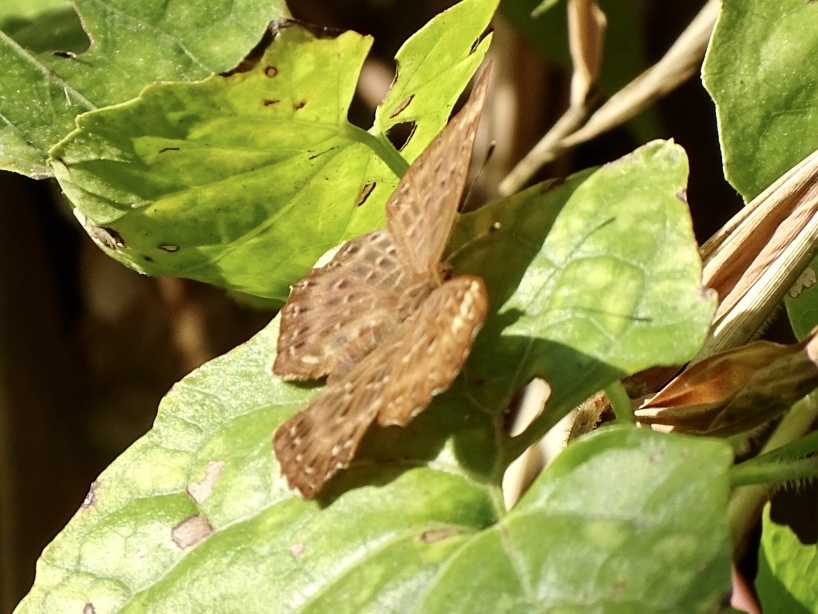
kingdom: Animalia
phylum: Arthropoda
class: Insecta
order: Lepidoptera
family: Riodinidae
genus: Zemeros
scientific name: Zemeros flegyas
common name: Punchinello
